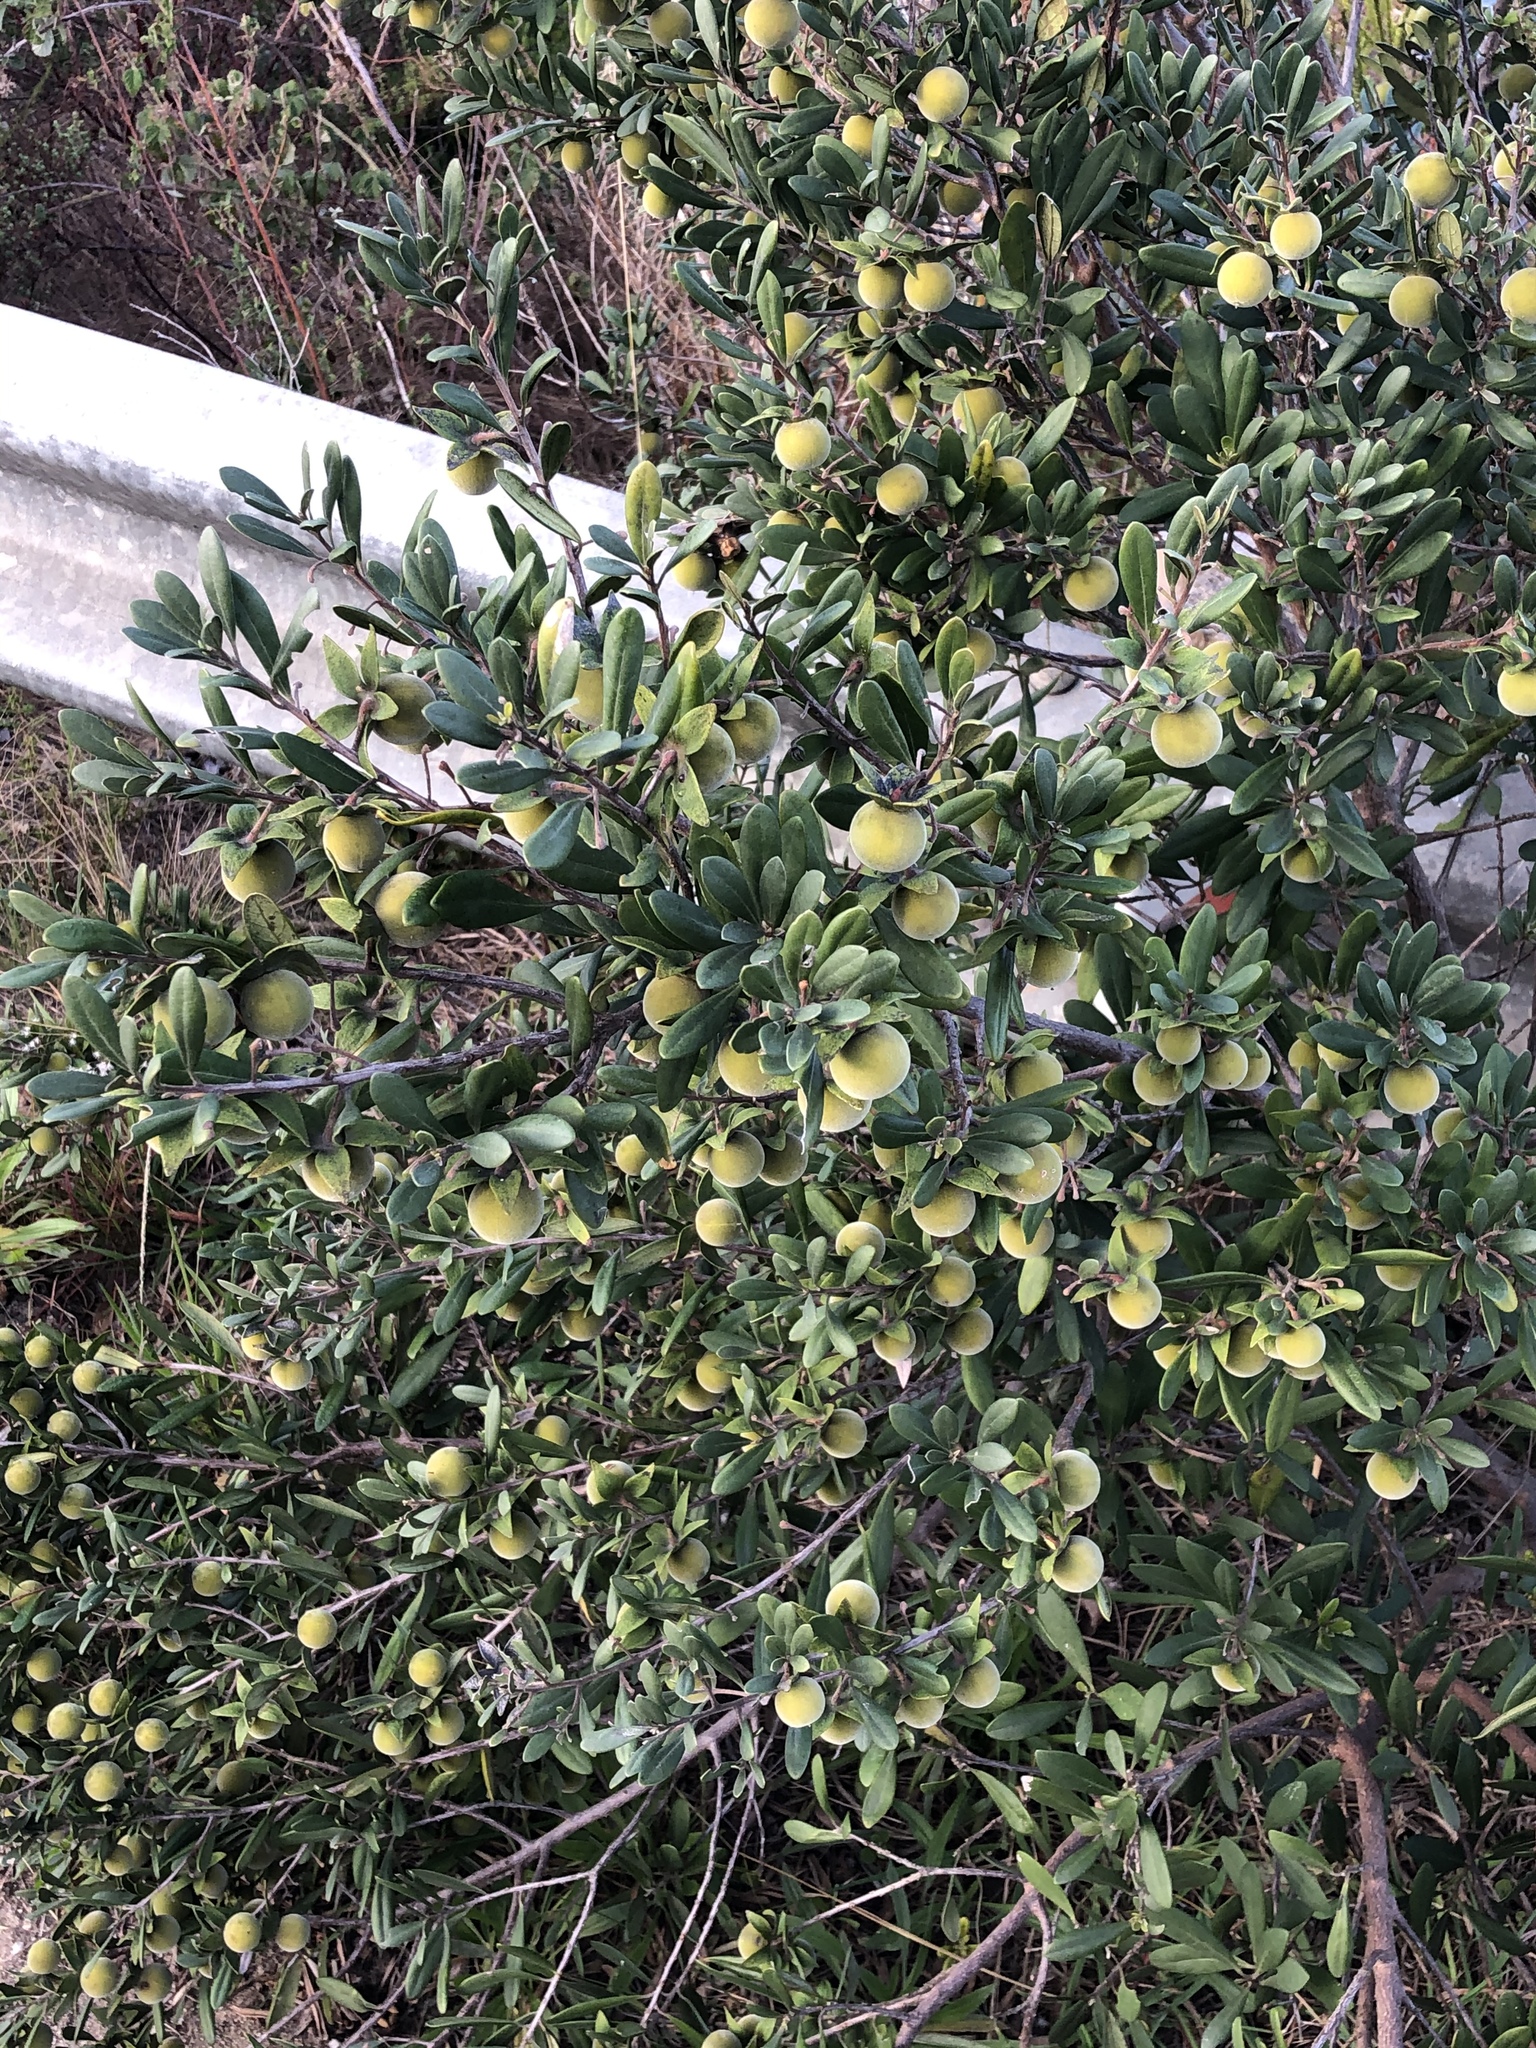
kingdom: Plantae
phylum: Tracheophyta
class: Magnoliopsida
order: Ericales
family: Ebenaceae
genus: Diospyros
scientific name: Diospyros dichrophylla
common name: Common star-apple
